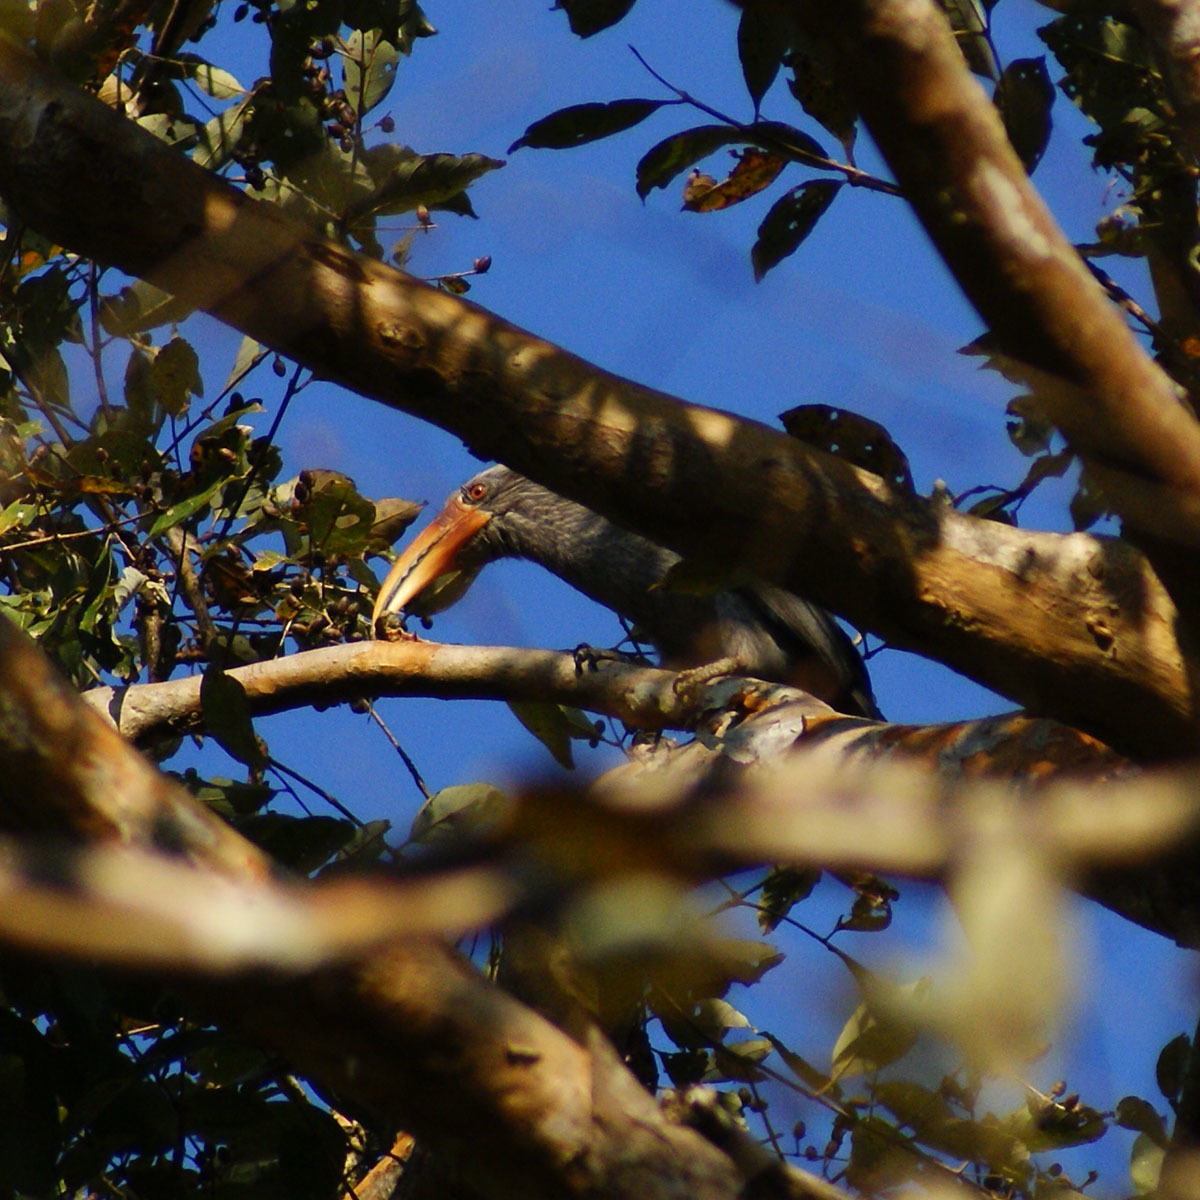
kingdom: Animalia
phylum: Chordata
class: Aves
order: Bucerotiformes
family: Bucerotidae
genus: Ocyceros
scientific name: Ocyceros griseus
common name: Malabar grey hornbill
